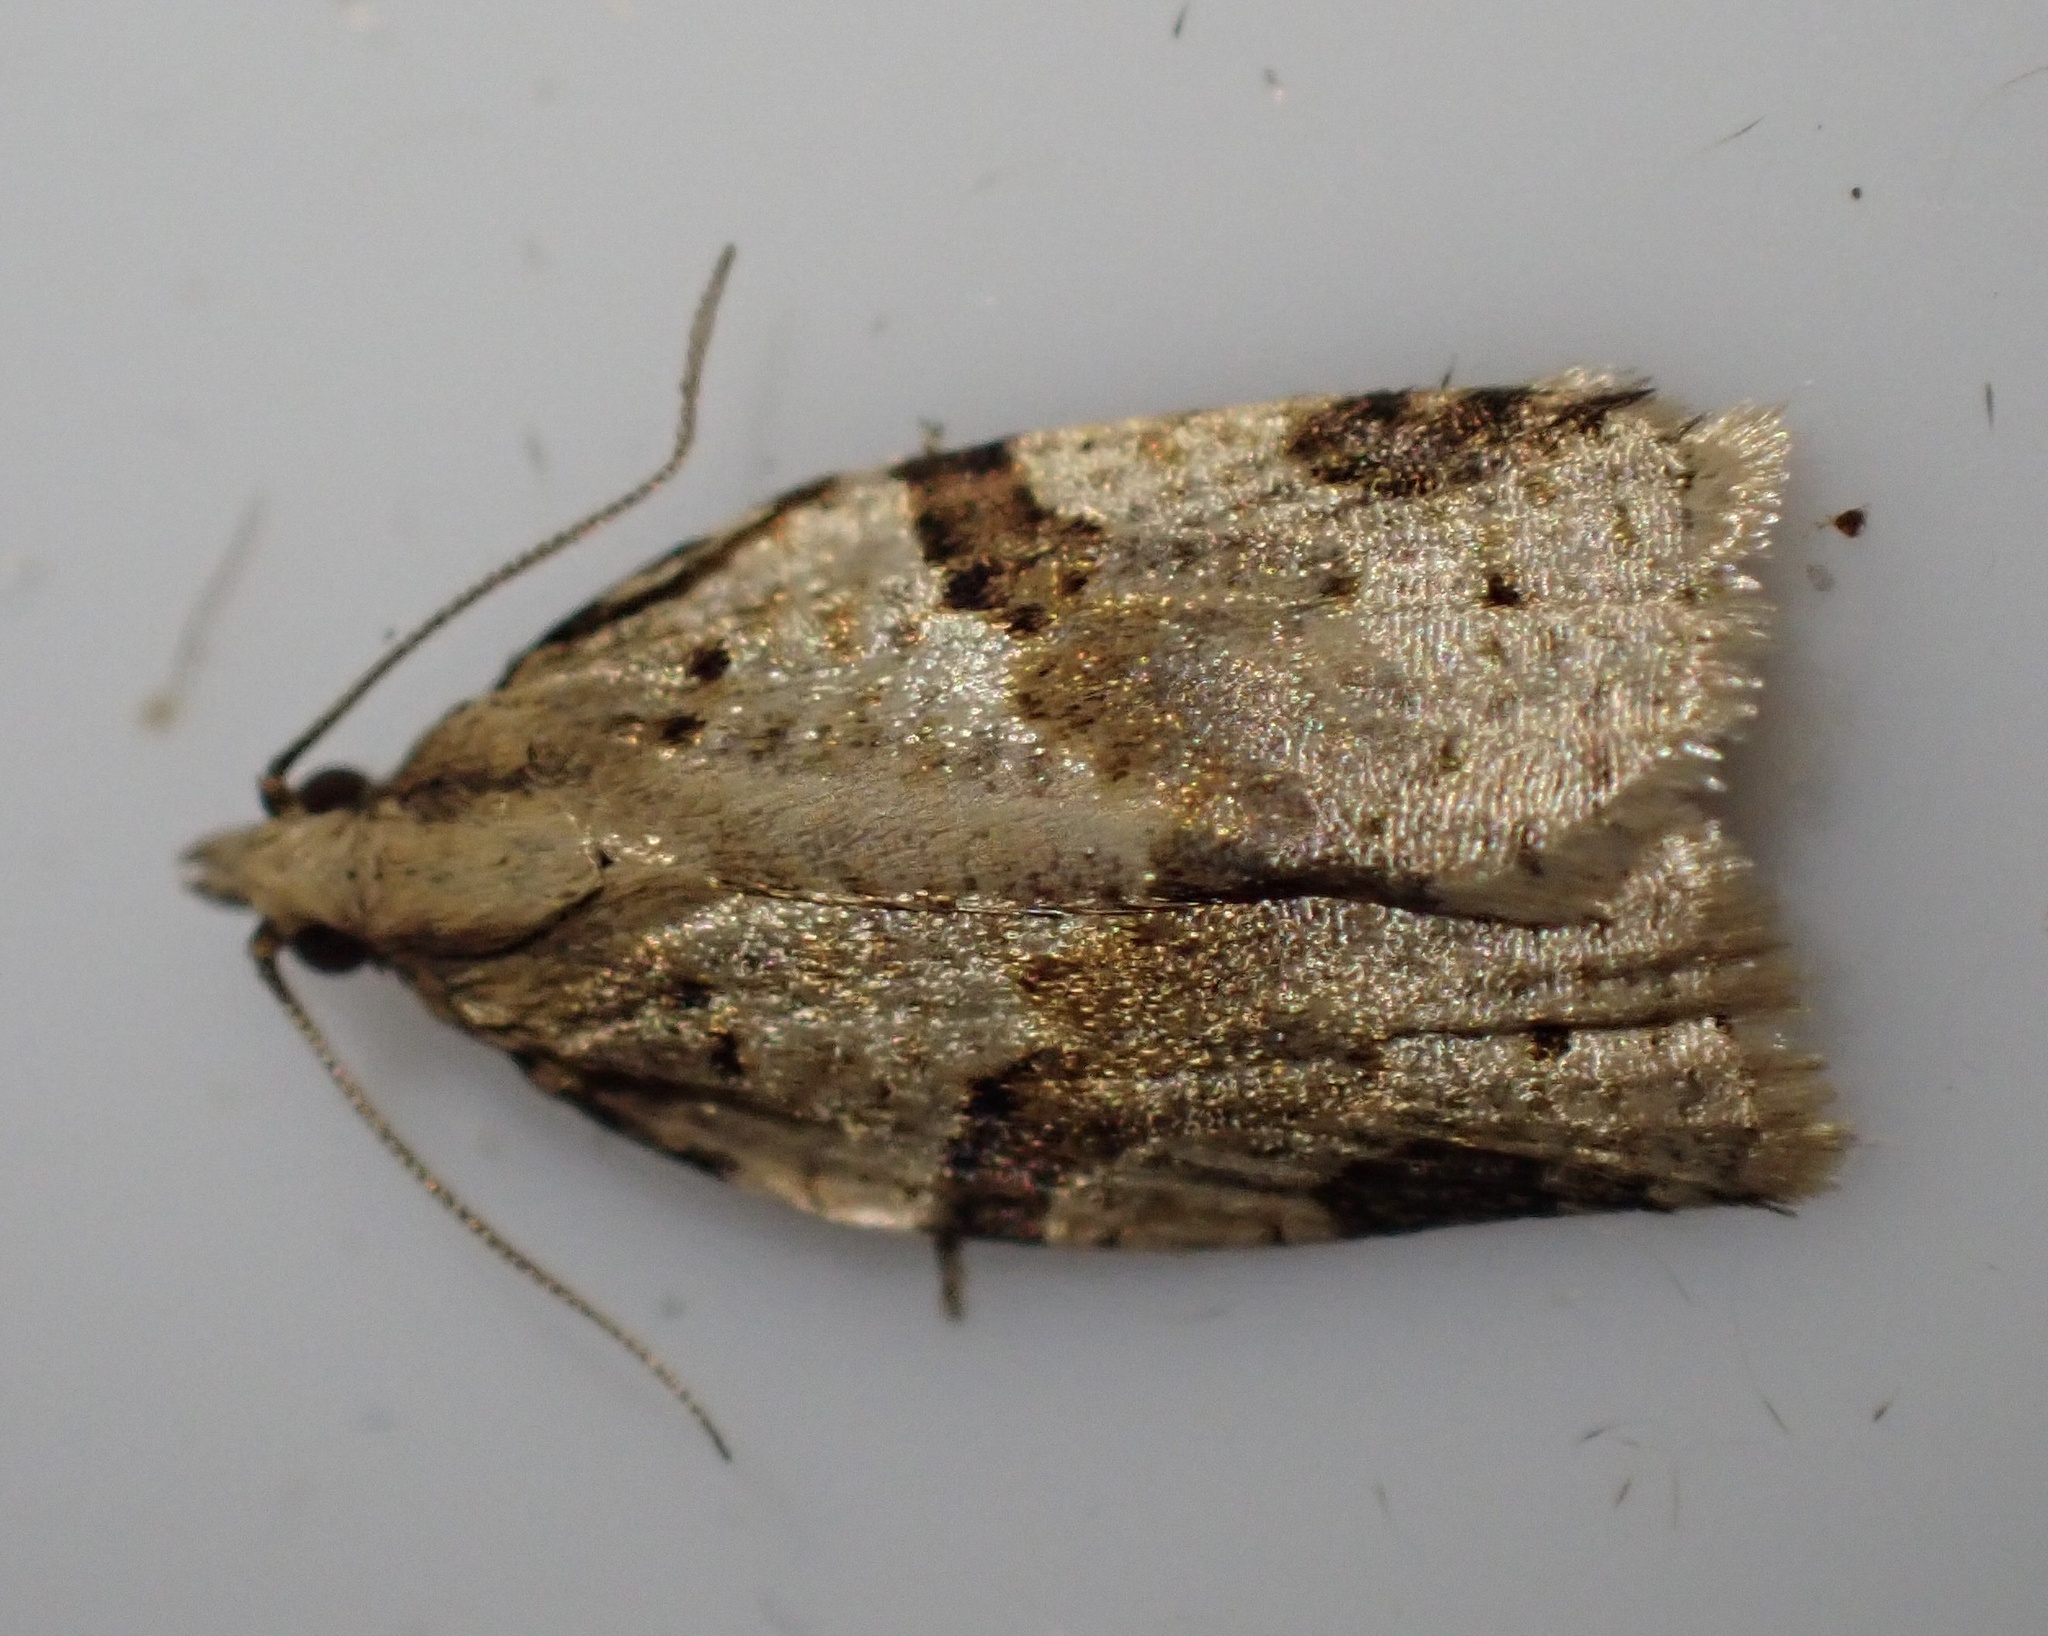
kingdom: Animalia
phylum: Arthropoda
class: Insecta
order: Lepidoptera
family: Tortricidae
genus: Clepsis
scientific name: Clepsis spectrana
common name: Cyclamen tortrix
